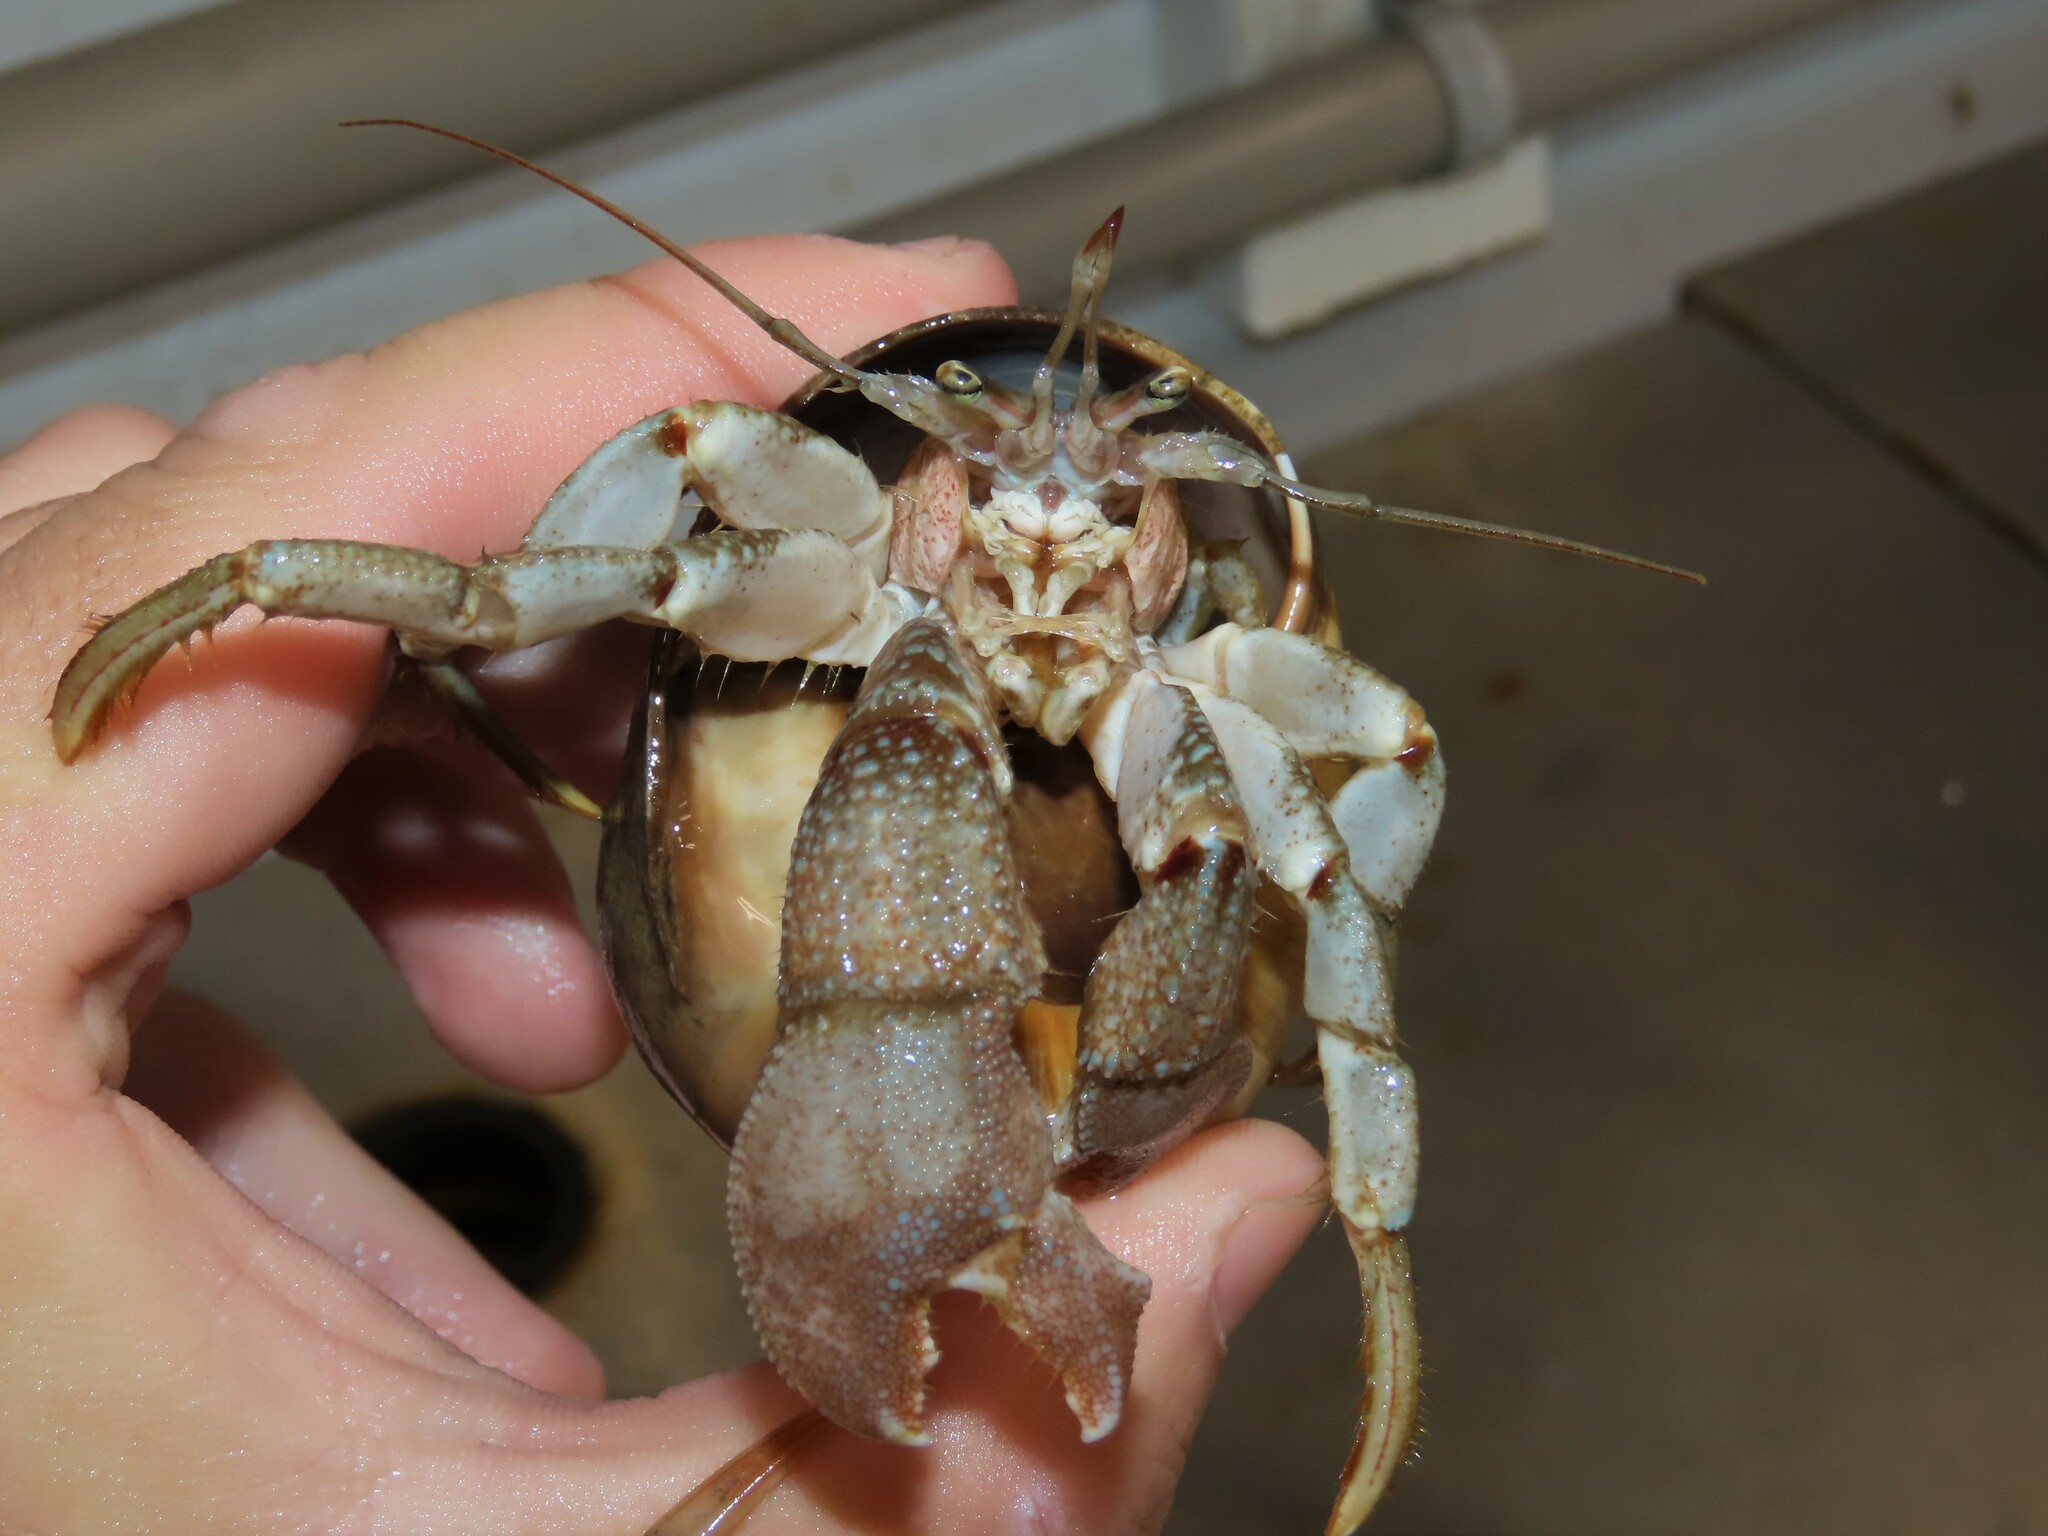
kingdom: Animalia
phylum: Arthropoda
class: Malacostraca
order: Decapoda
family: Paguridae
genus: Pagurus
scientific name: Pagurus pollicaris
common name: Flatclaw hermit
